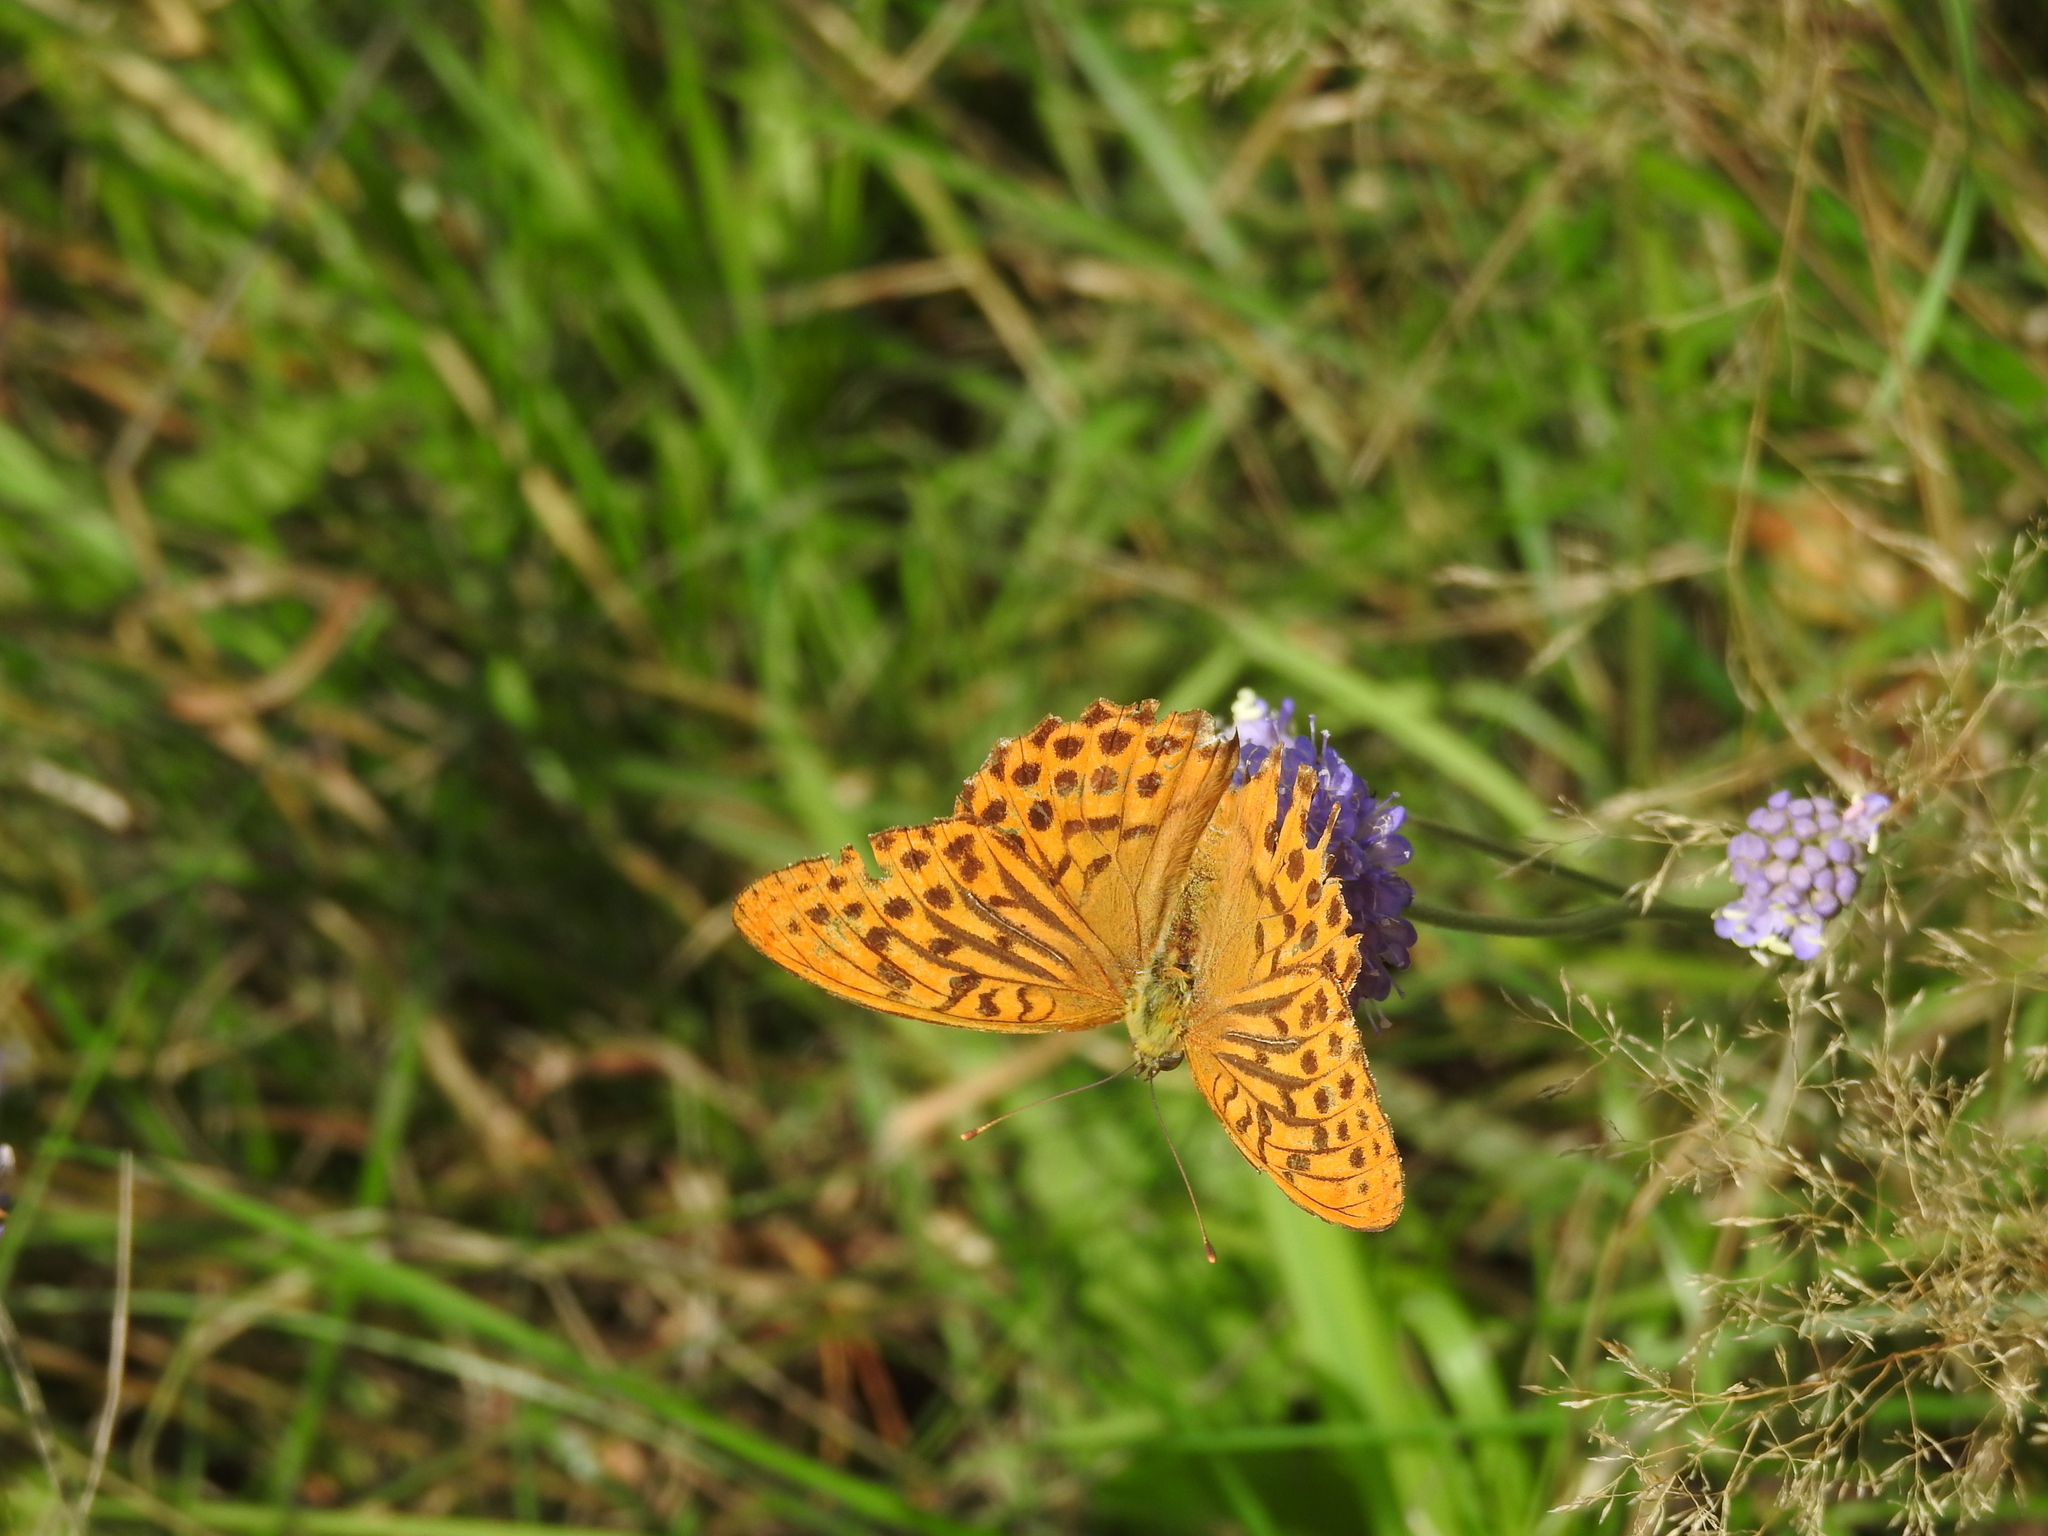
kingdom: Animalia
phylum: Arthropoda
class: Insecta
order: Lepidoptera
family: Nymphalidae
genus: Argynnis
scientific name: Argynnis paphia
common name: Silver-washed fritillary
